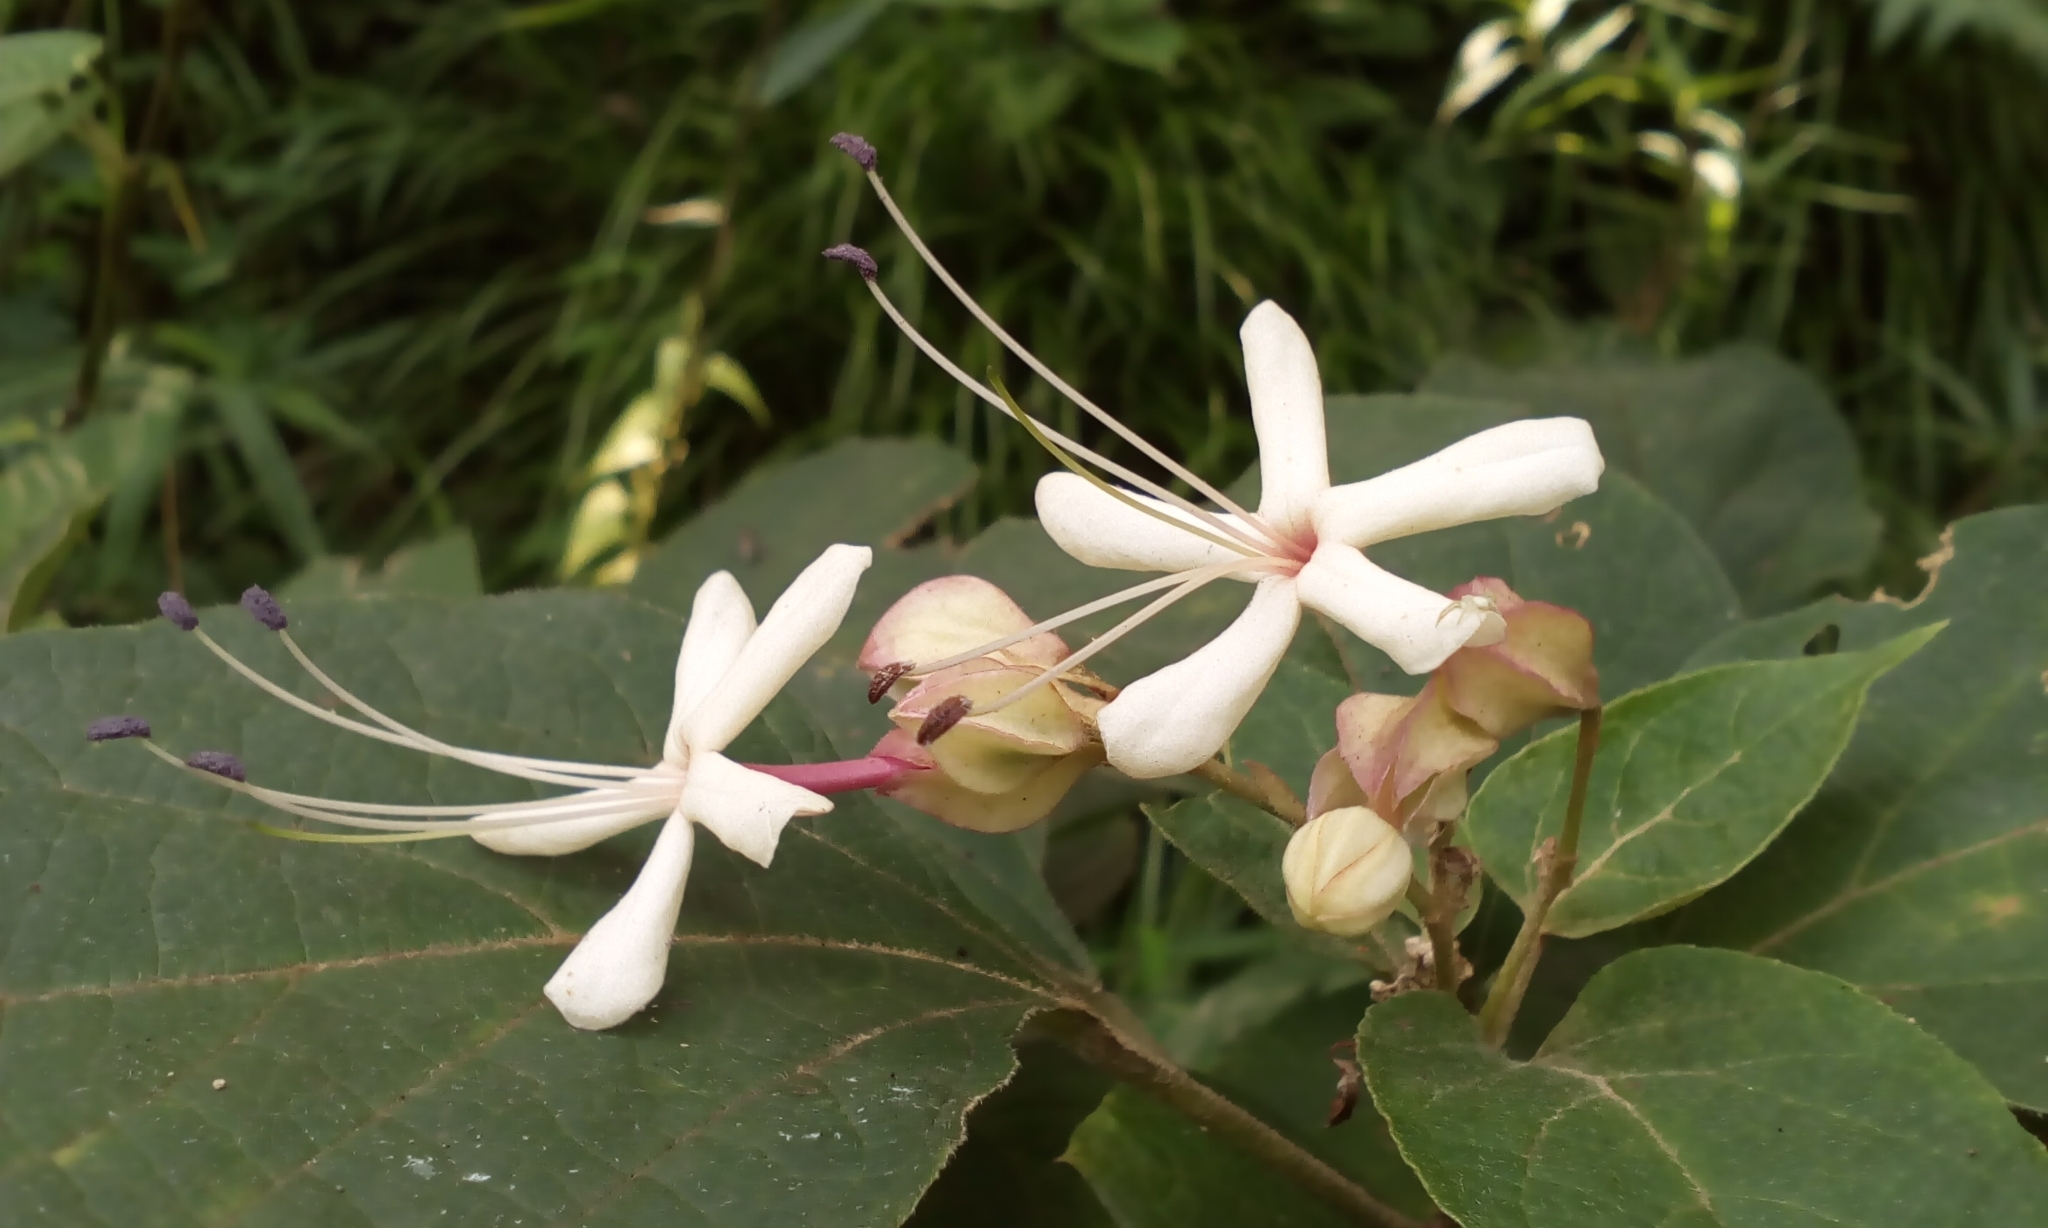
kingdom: Plantae
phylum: Tracheophyta
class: Magnoliopsida
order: Lamiales
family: Lamiaceae
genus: Clerodendrum
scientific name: Clerodendrum trichotomum
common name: Harlequin glorybower
